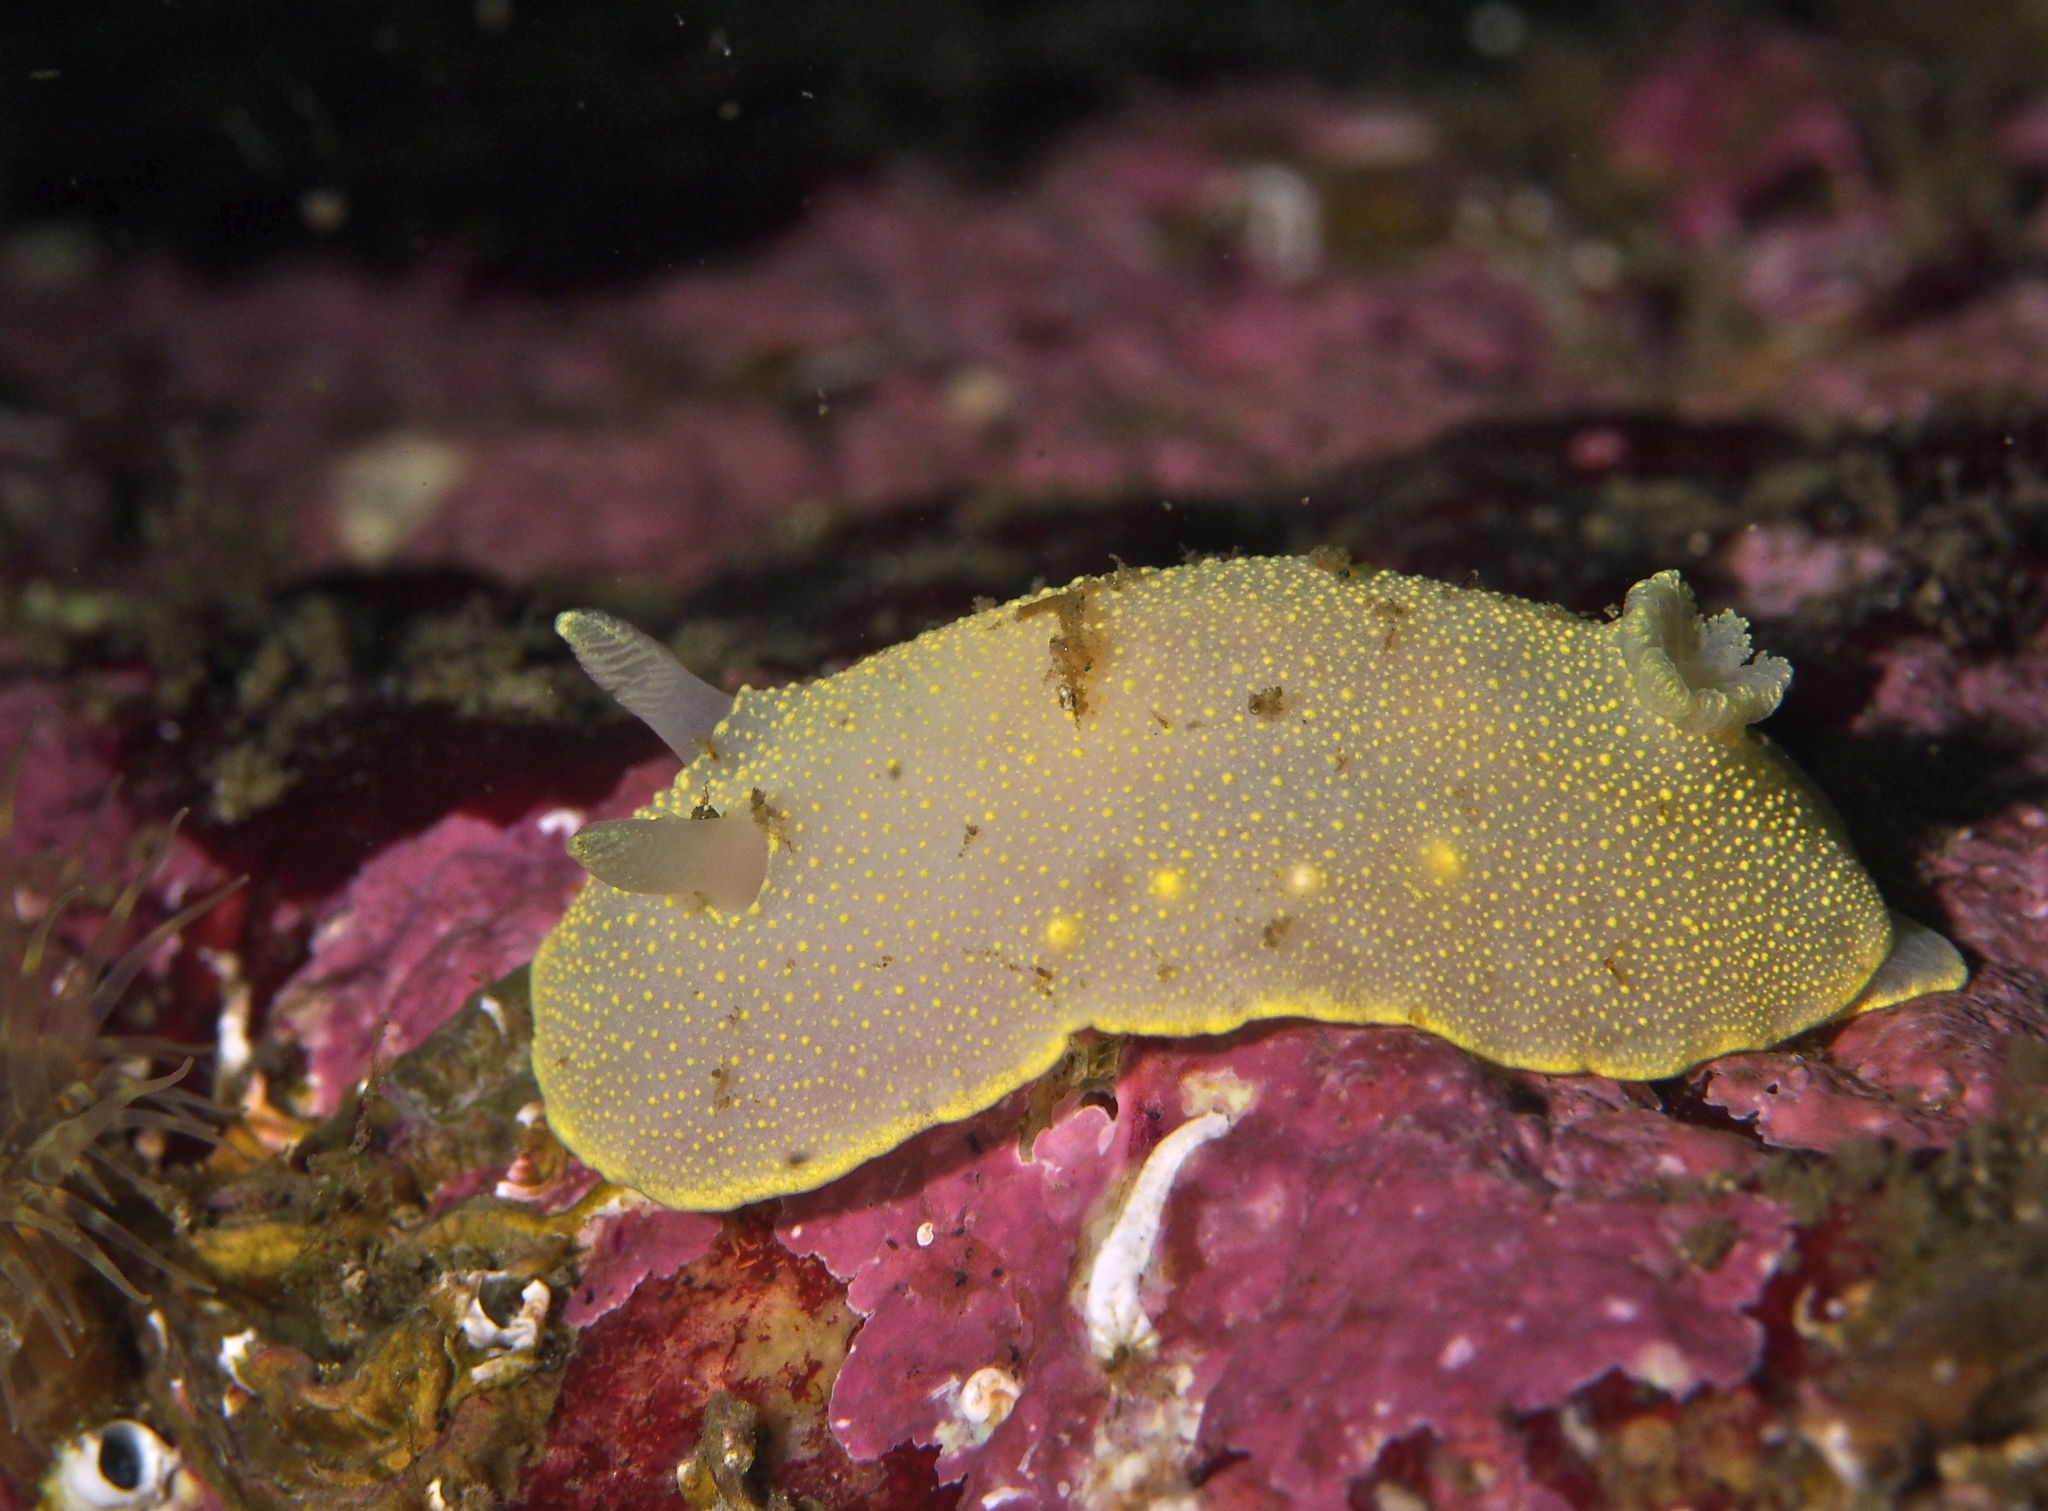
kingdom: Animalia
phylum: Mollusca
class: Gastropoda
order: Nudibranchia
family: Cadlinidae
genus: Cadlina
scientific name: Cadlina laevis
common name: White atlantic cadlina
